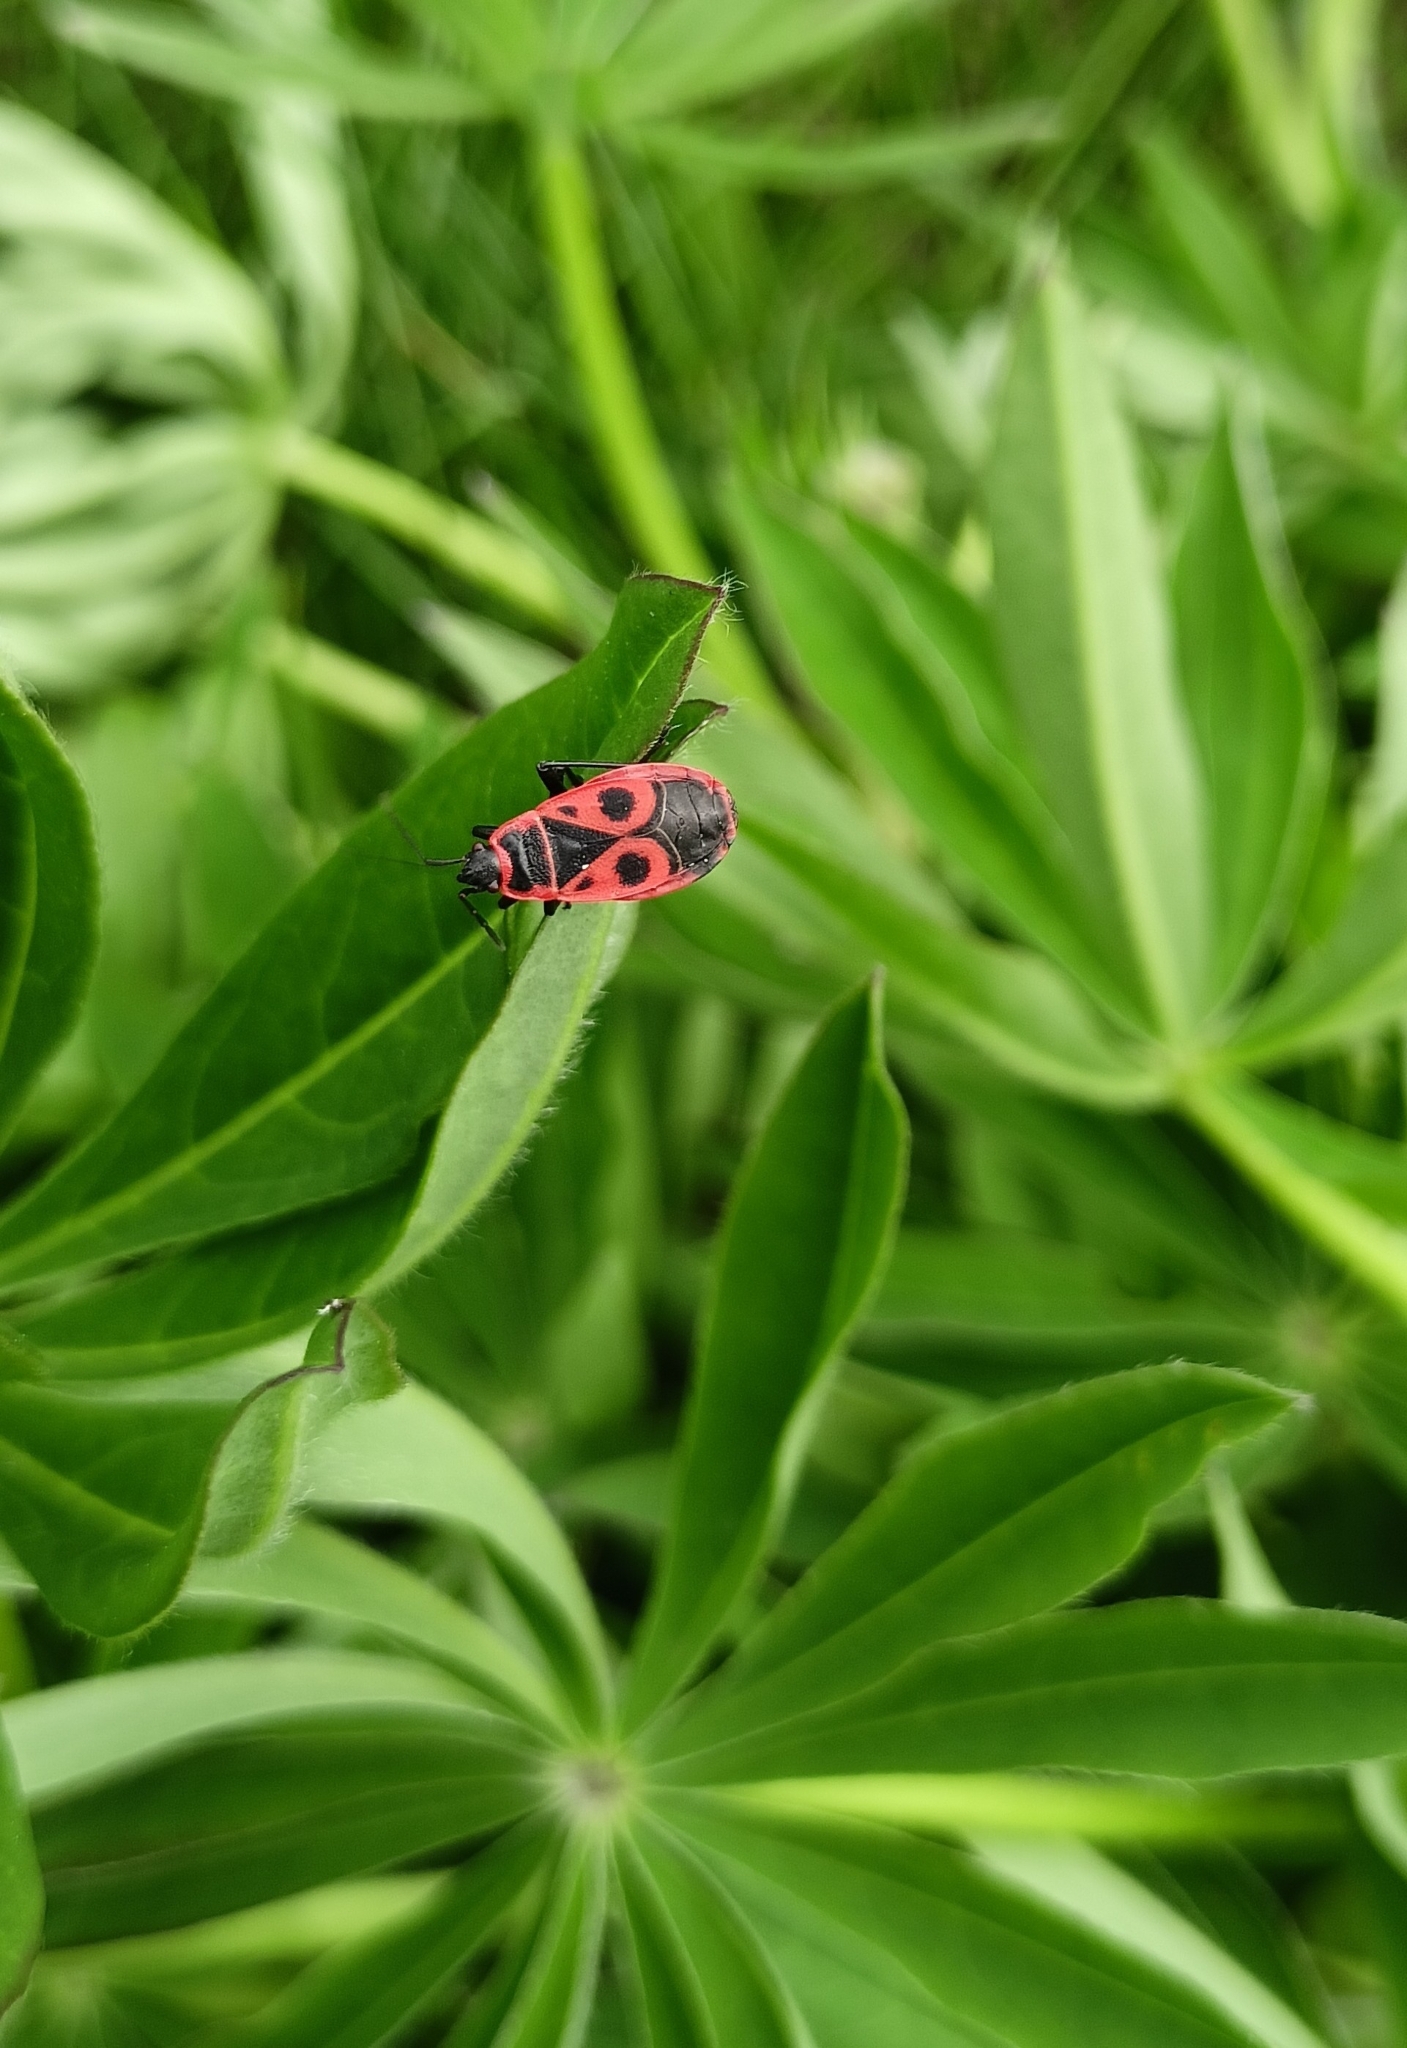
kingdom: Animalia
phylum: Arthropoda
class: Insecta
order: Hemiptera
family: Pyrrhocoridae
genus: Pyrrhocoris
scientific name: Pyrrhocoris apterus
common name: Firebug
